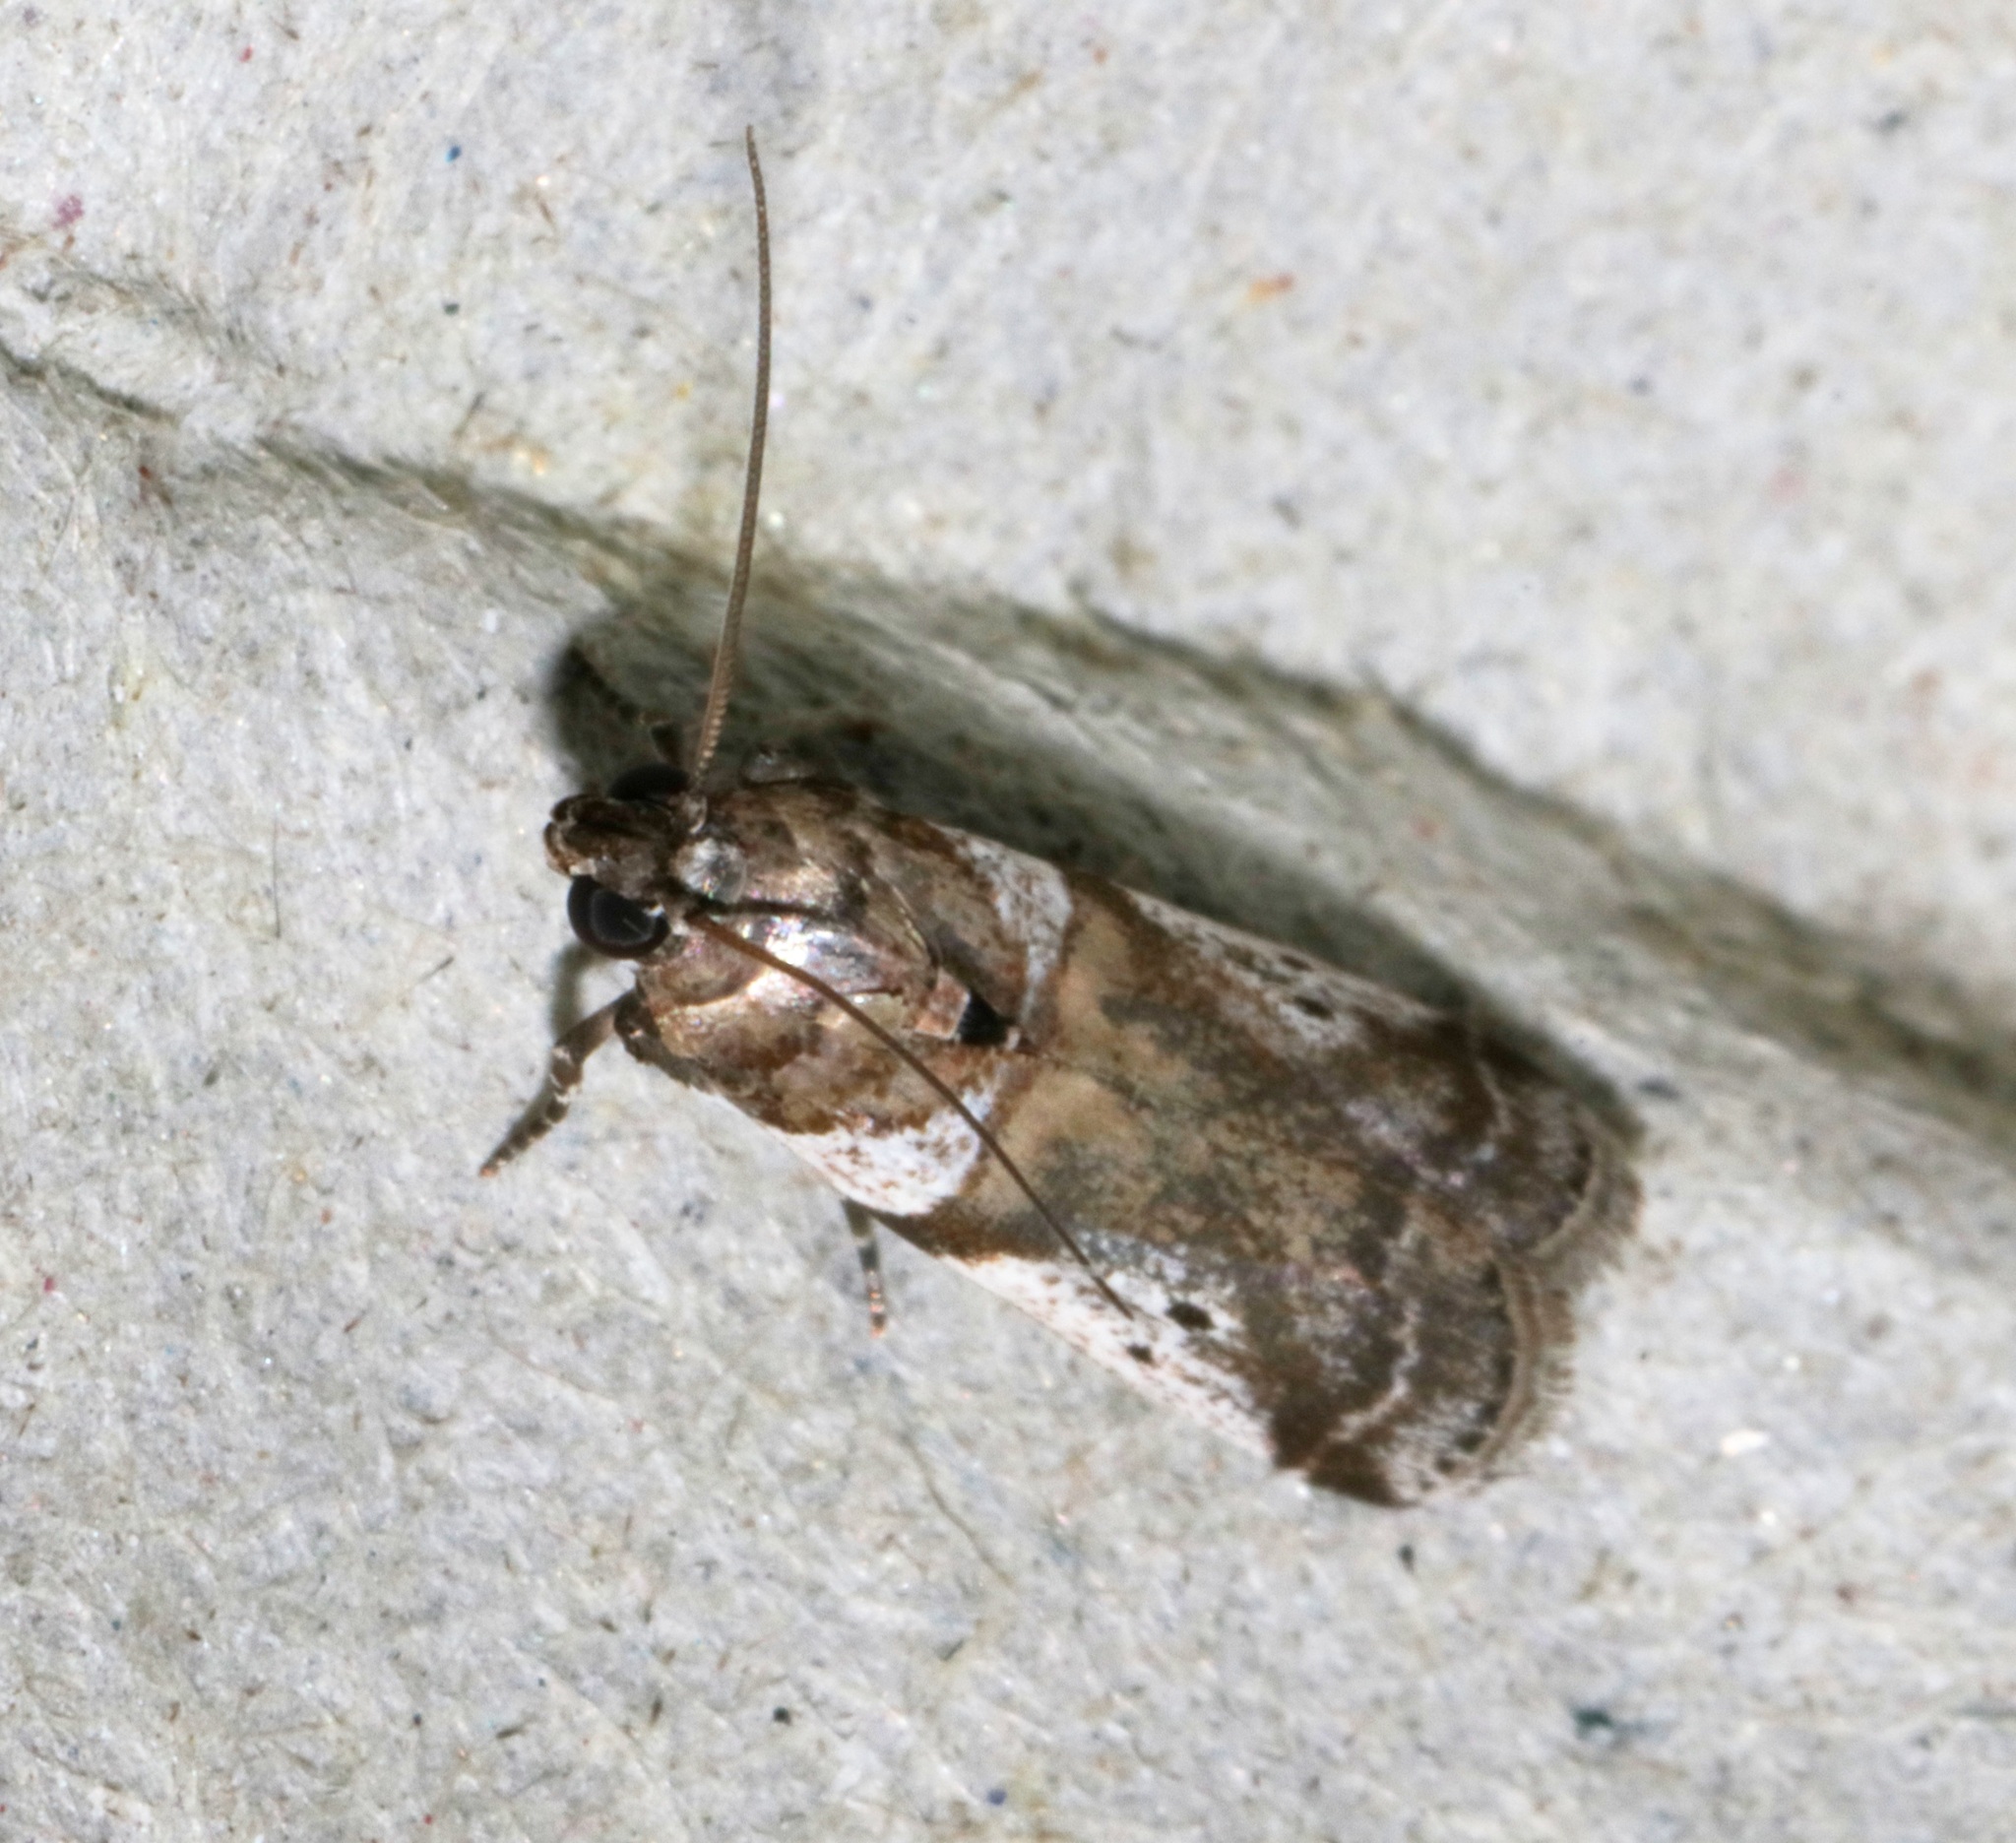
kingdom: Animalia
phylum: Arthropoda
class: Insecta
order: Lepidoptera
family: Pyralidae
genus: Rhodophaea
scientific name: Rhodophaea
